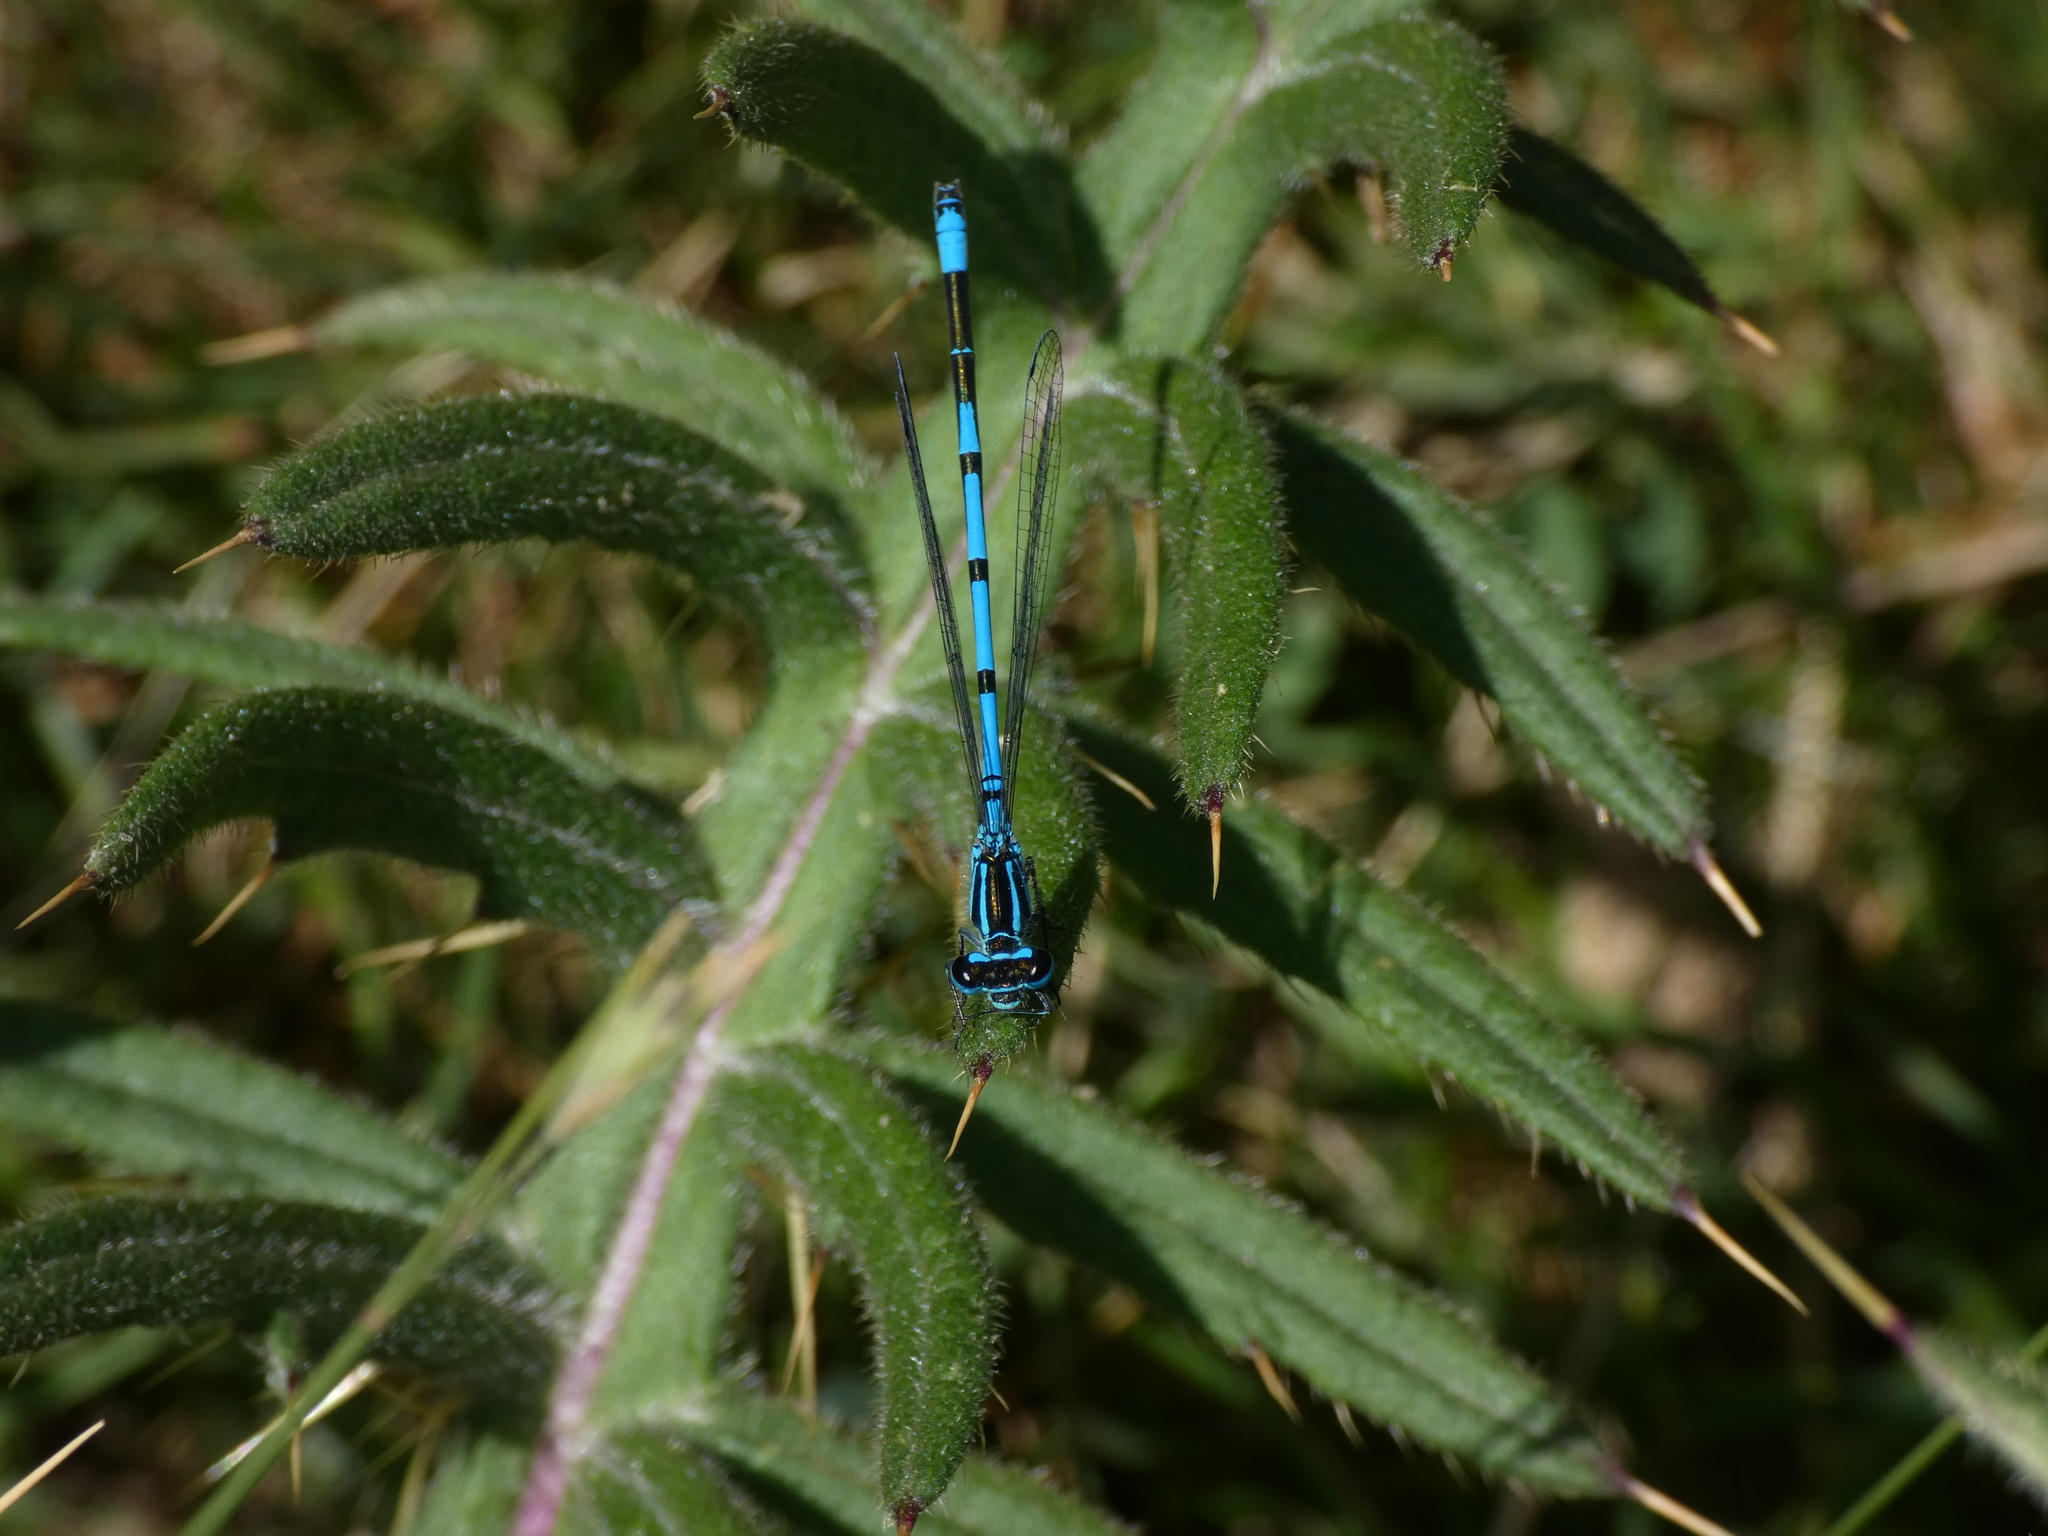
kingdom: Animalia
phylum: Arthropoda
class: Insecta
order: Odonata
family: Coenagrionidae
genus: Coenagrion
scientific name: Coenagrion puella
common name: Azure damselfly
